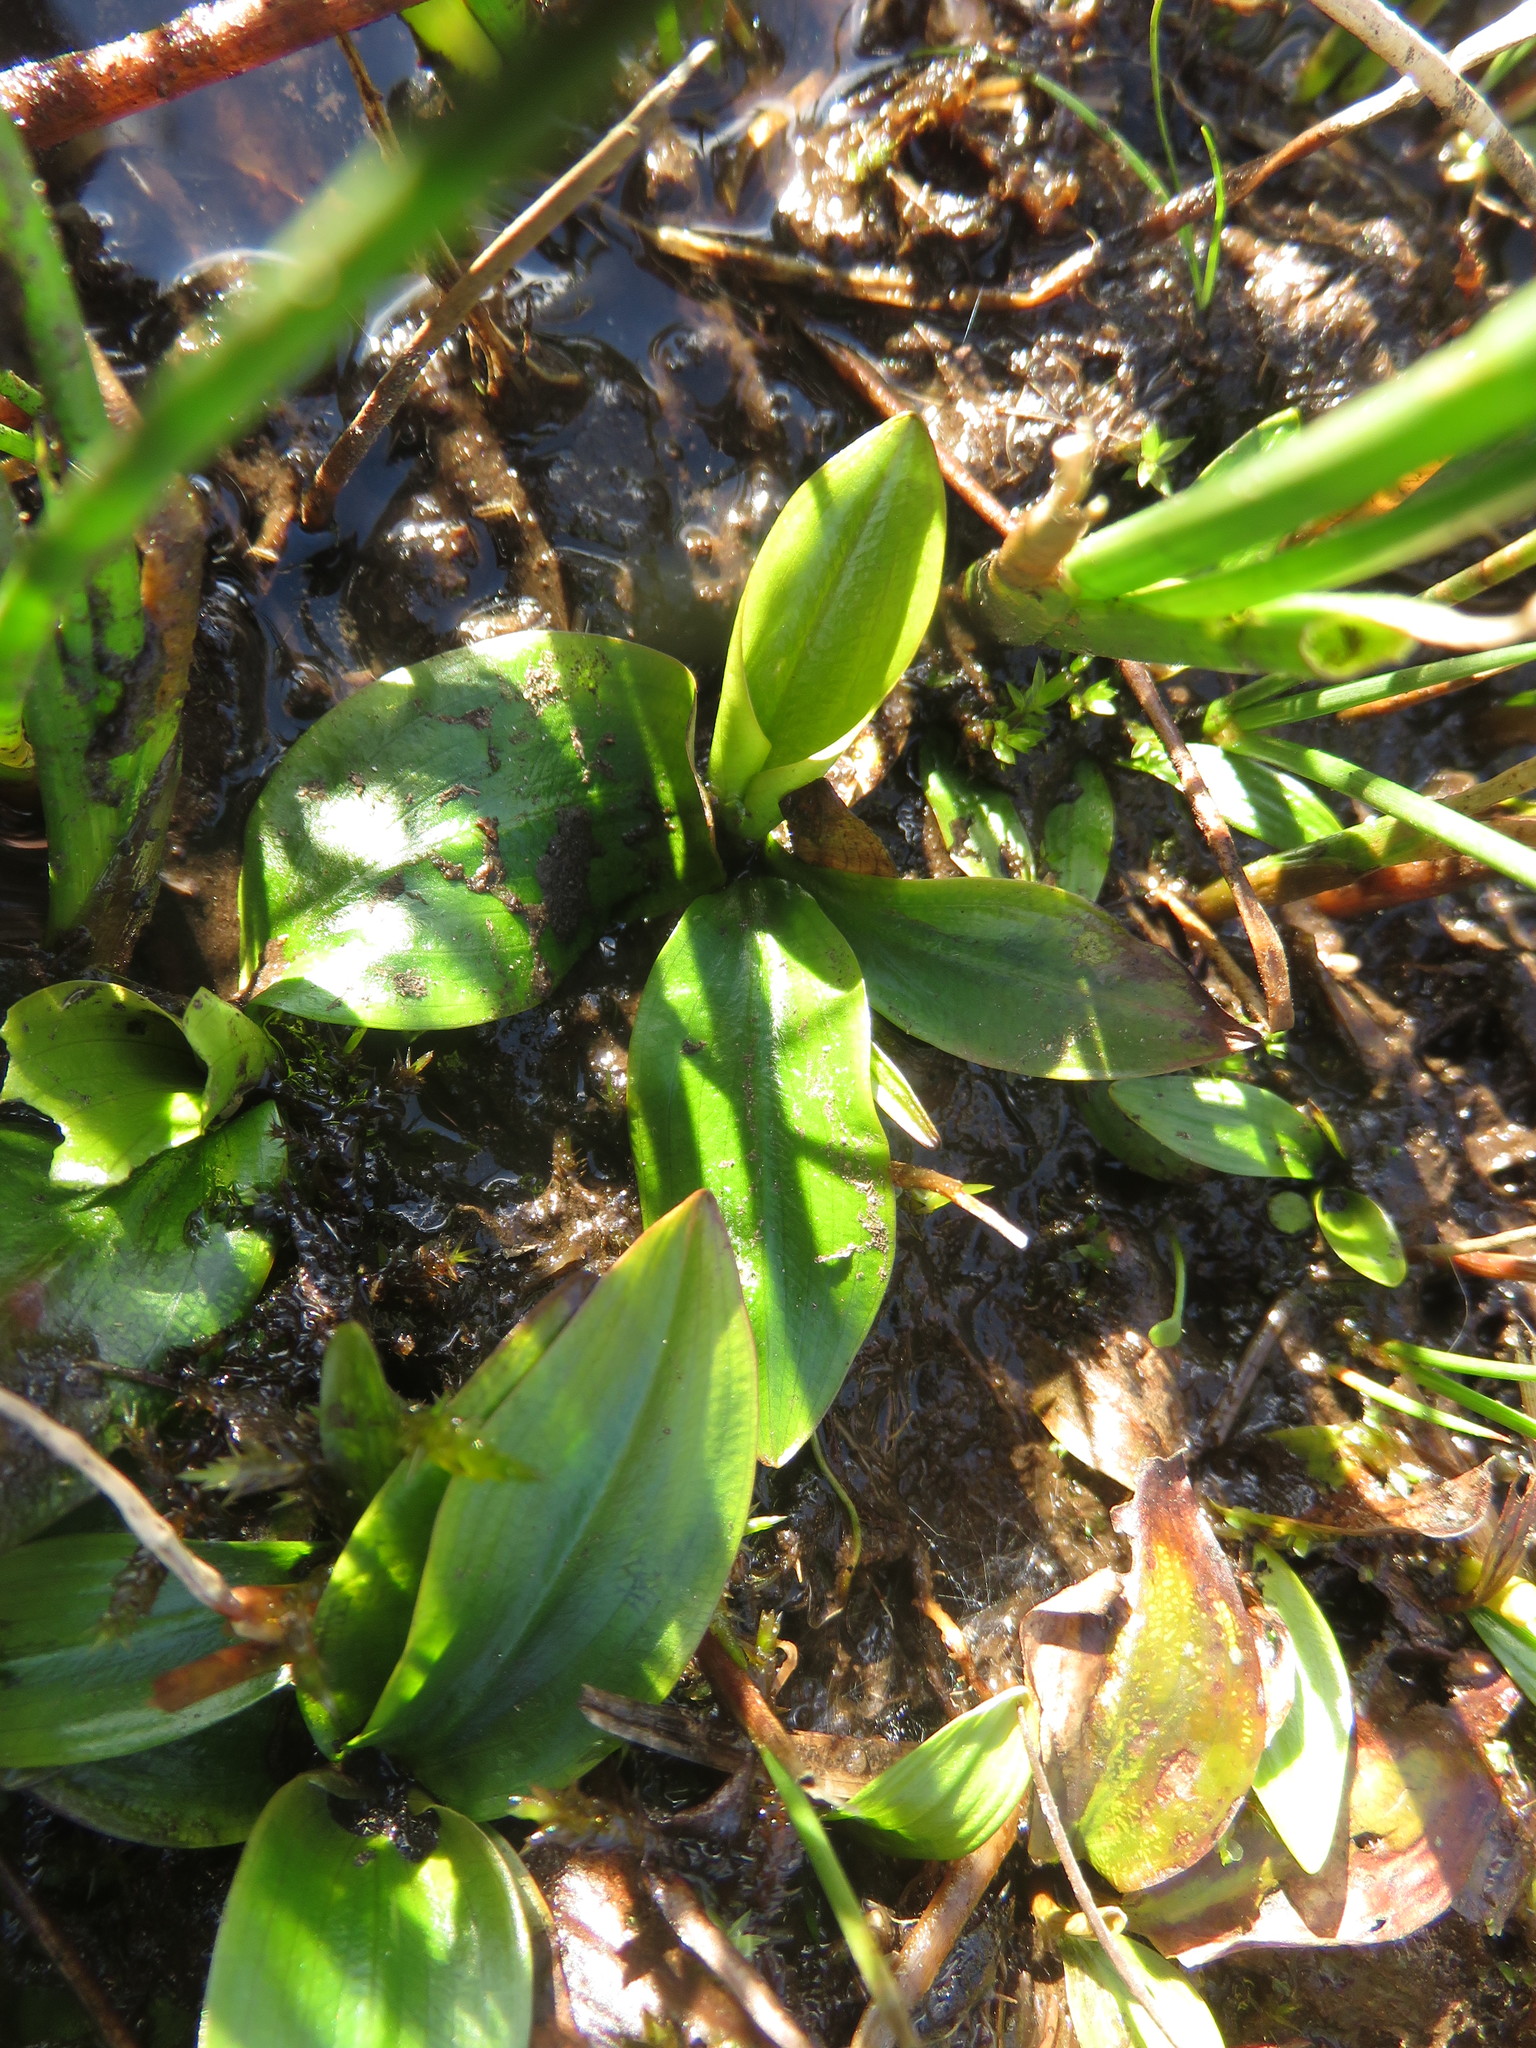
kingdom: Plantae
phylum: Tracheophyta
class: Liliopsida
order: Alismatales
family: Potamogetonaceae
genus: Potamogeton
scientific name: Potamogeton polygonifolius
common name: Bog pondweed
